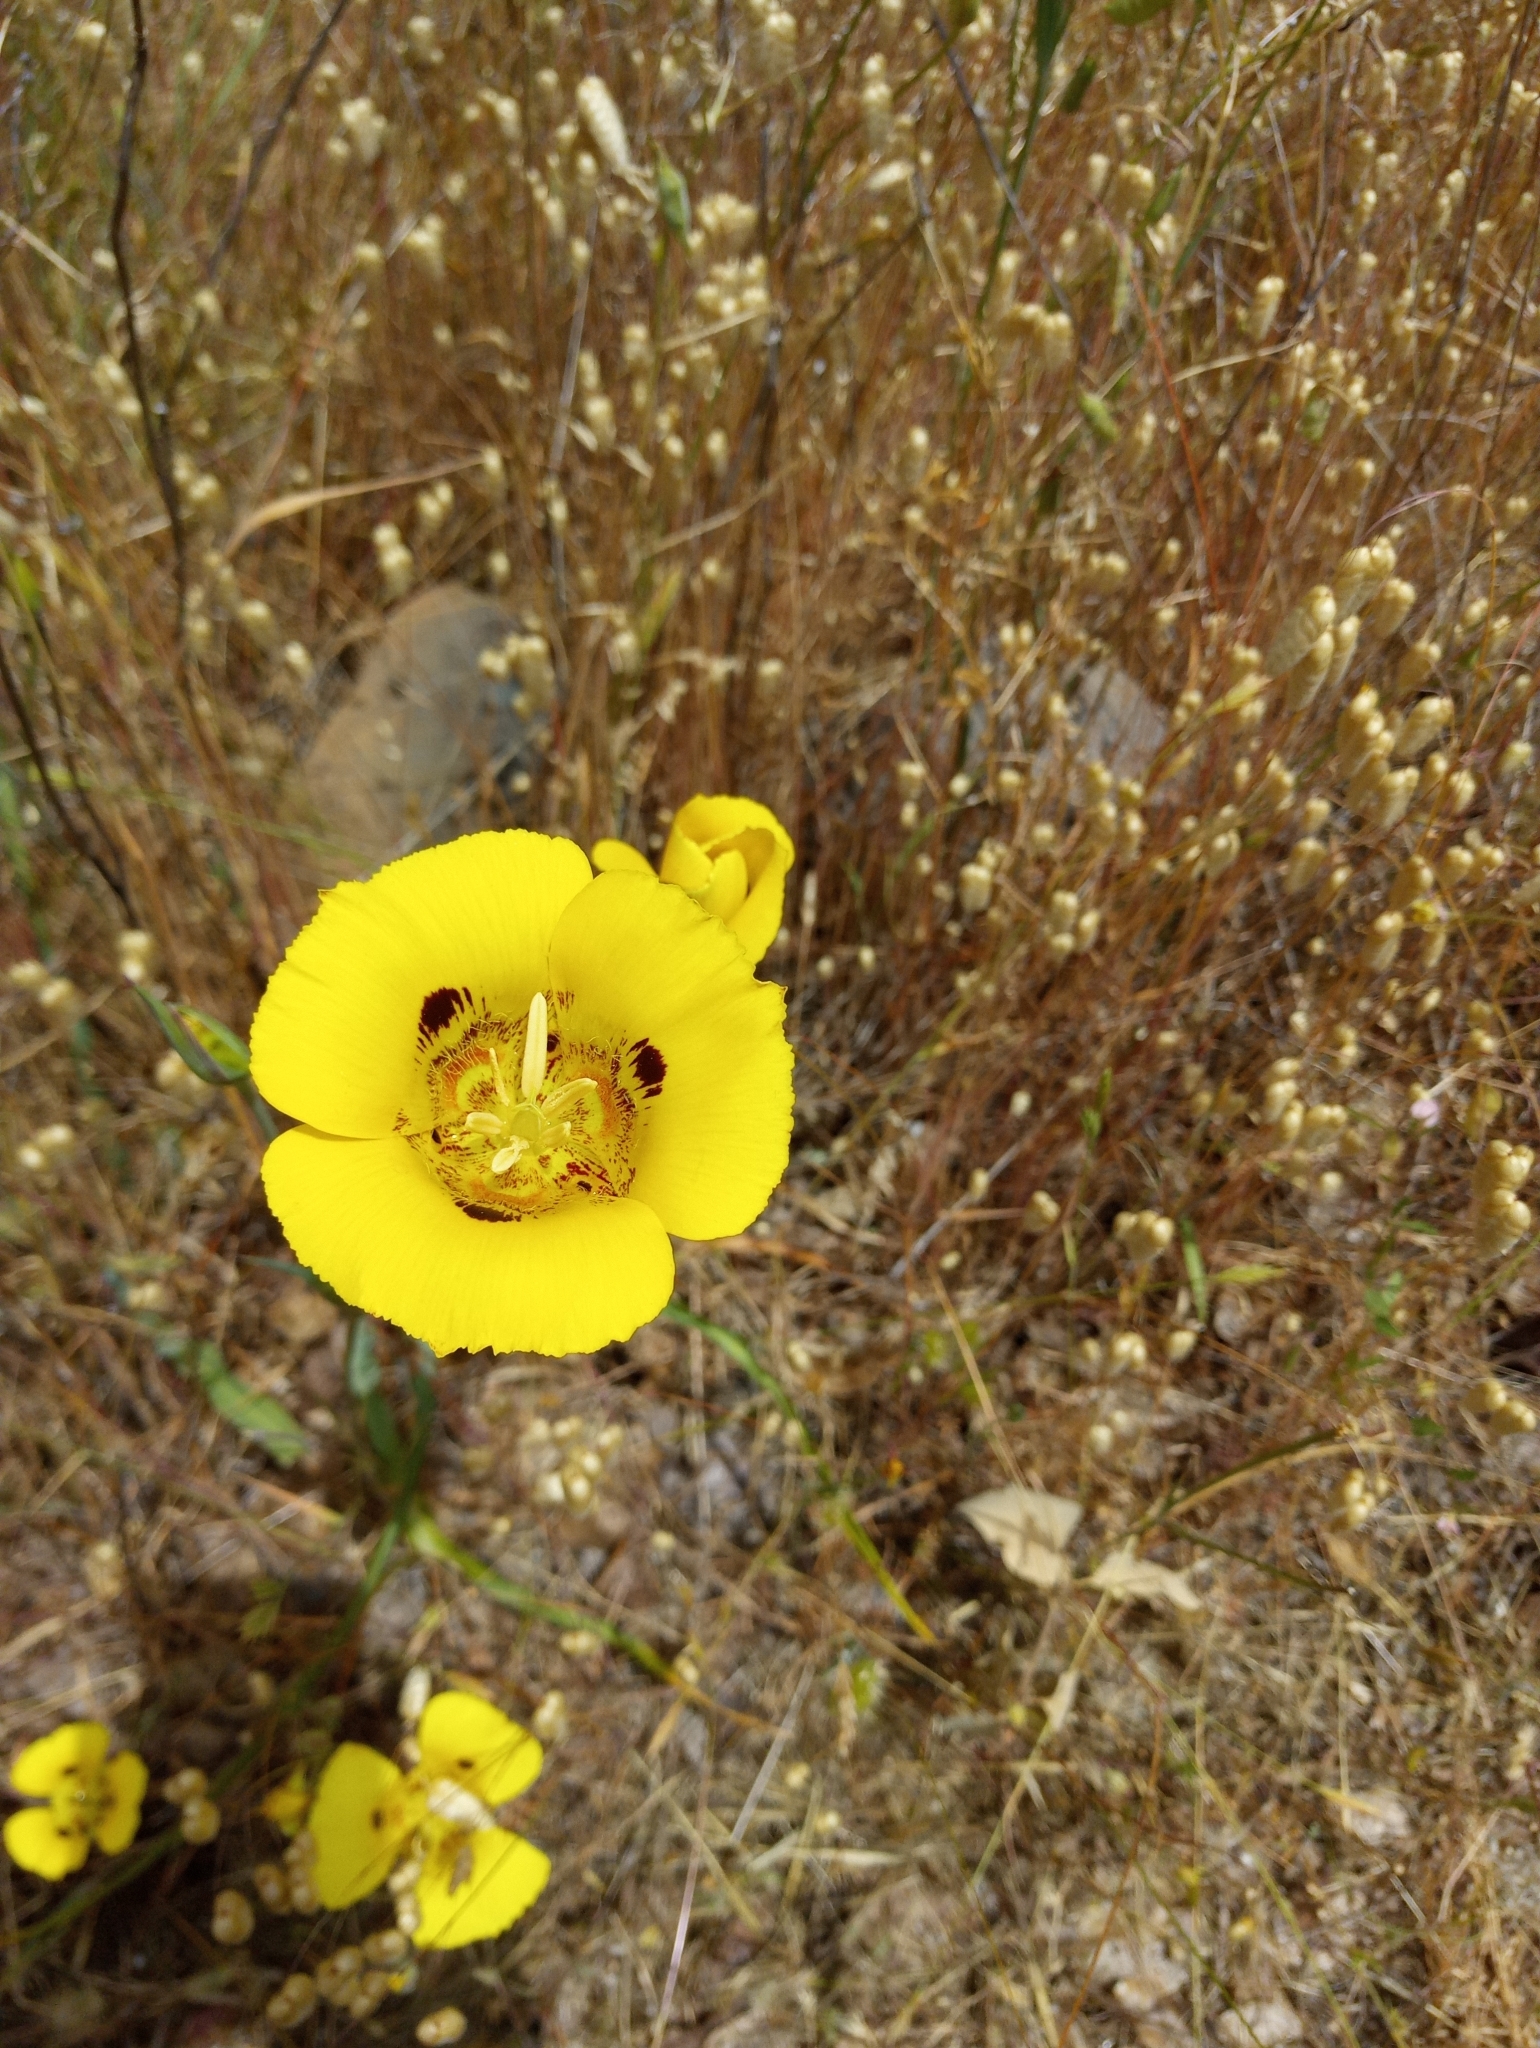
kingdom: Plantae
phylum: Tracheophyta
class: Liliopsida
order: Liliales
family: Liliaceae
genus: Calochortus
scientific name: Calochortus luteus
